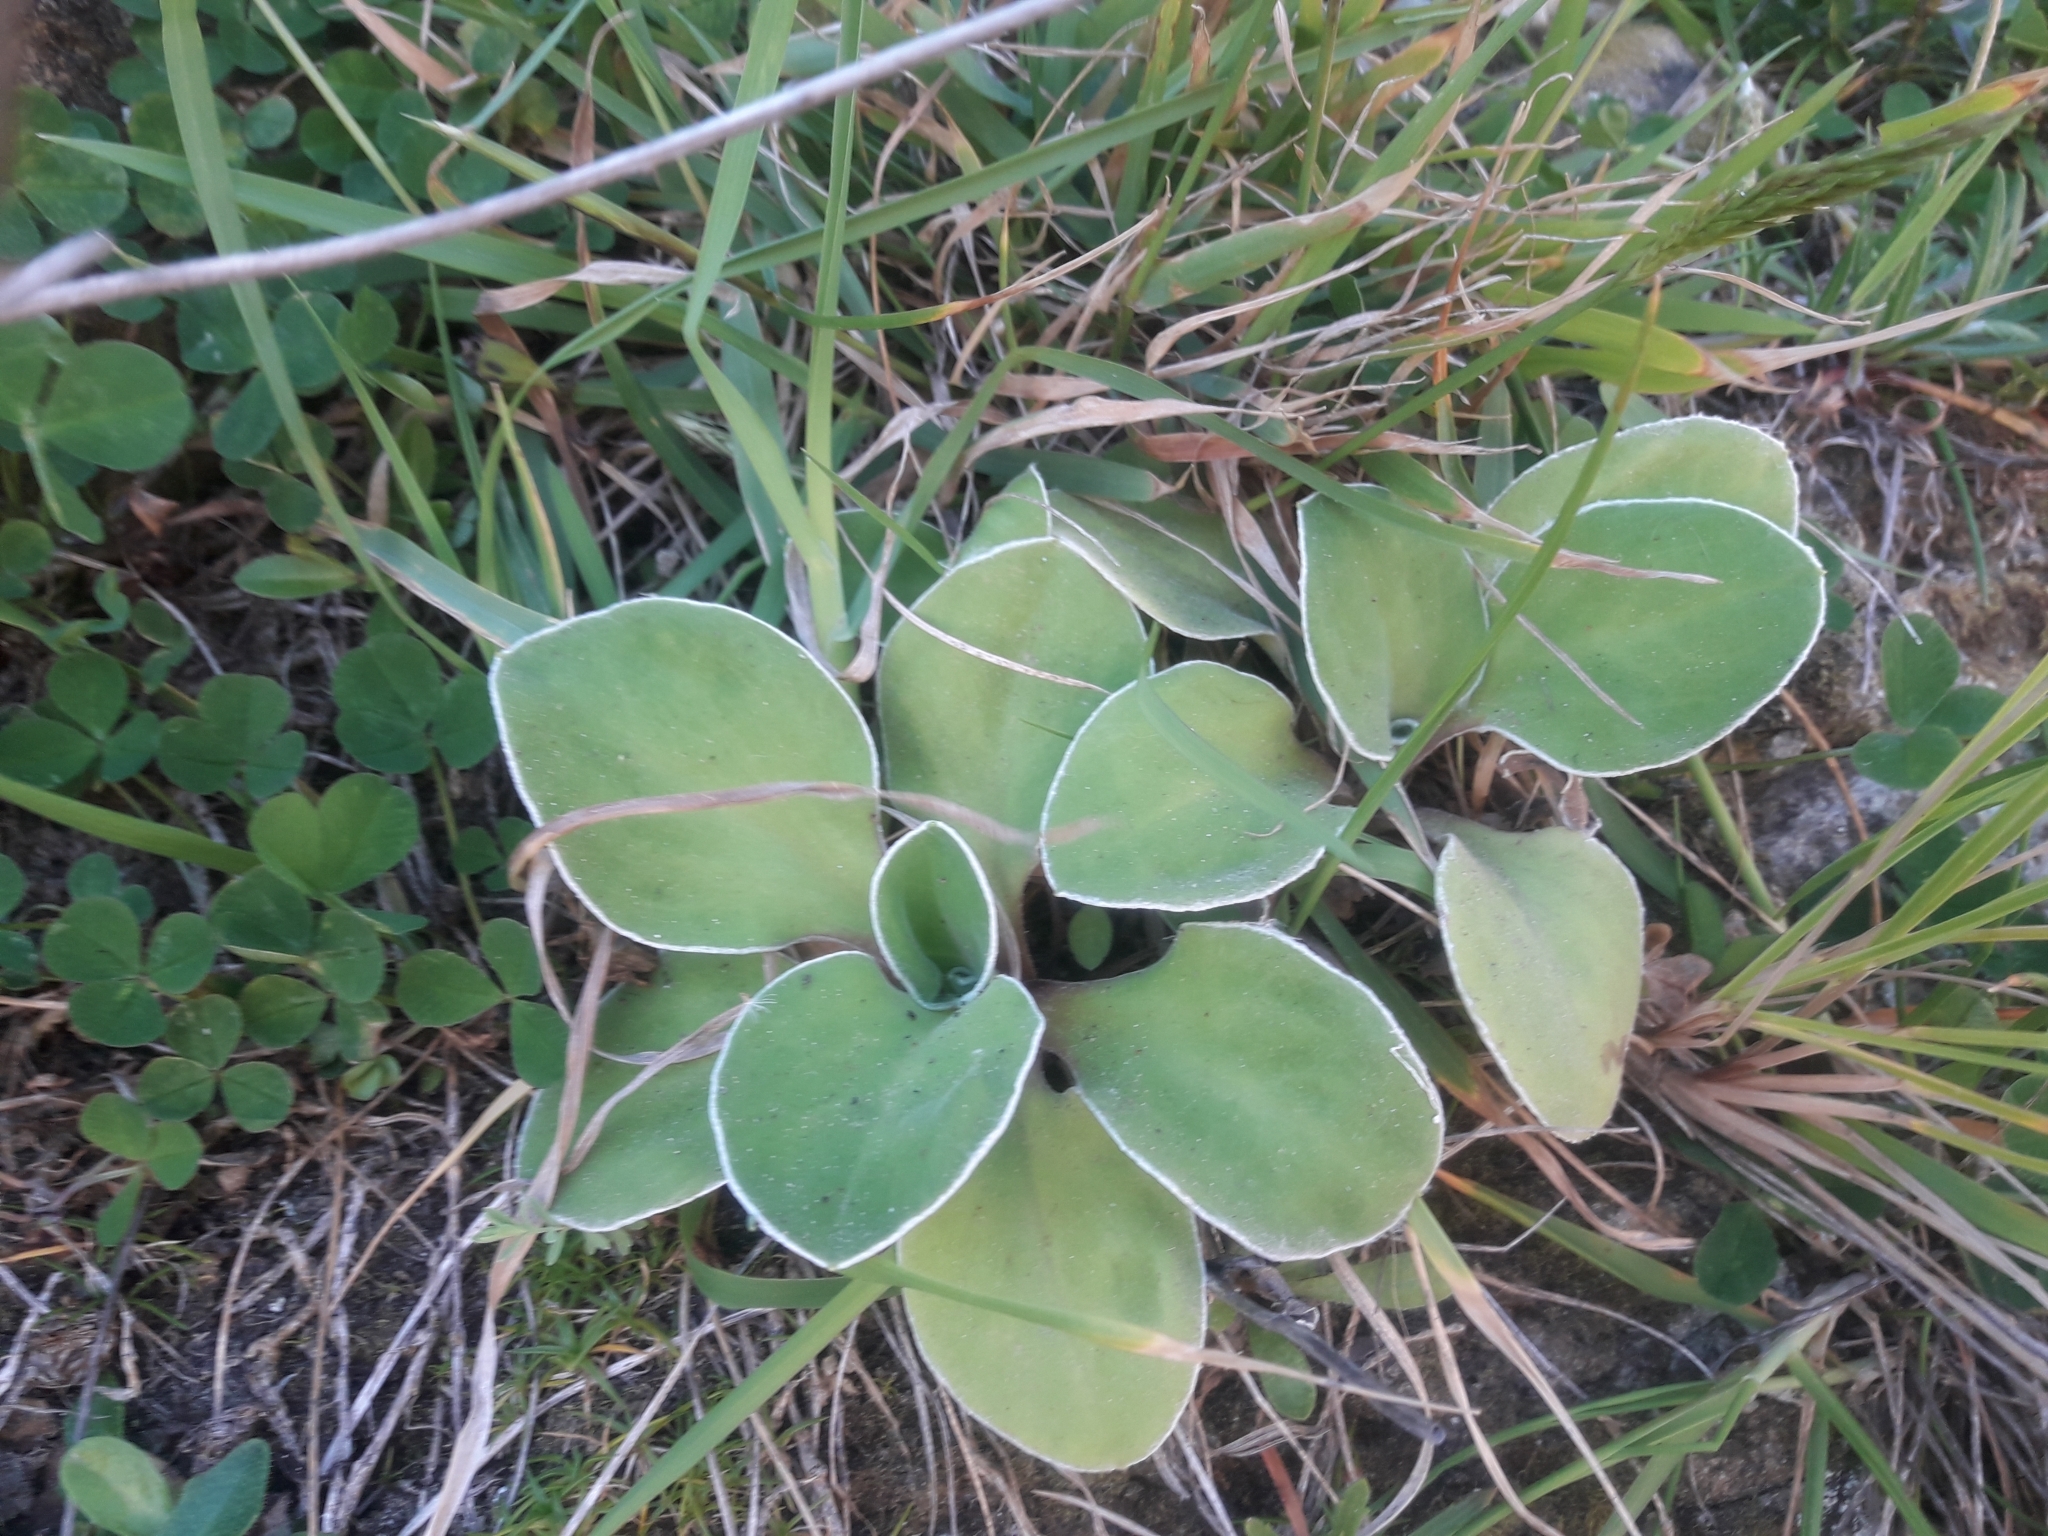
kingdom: Plantae
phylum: Tracheophyta
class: Magnoliopsida
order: Asterales
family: Asteraceae
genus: Craspedia
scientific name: Craspedia uniflora
